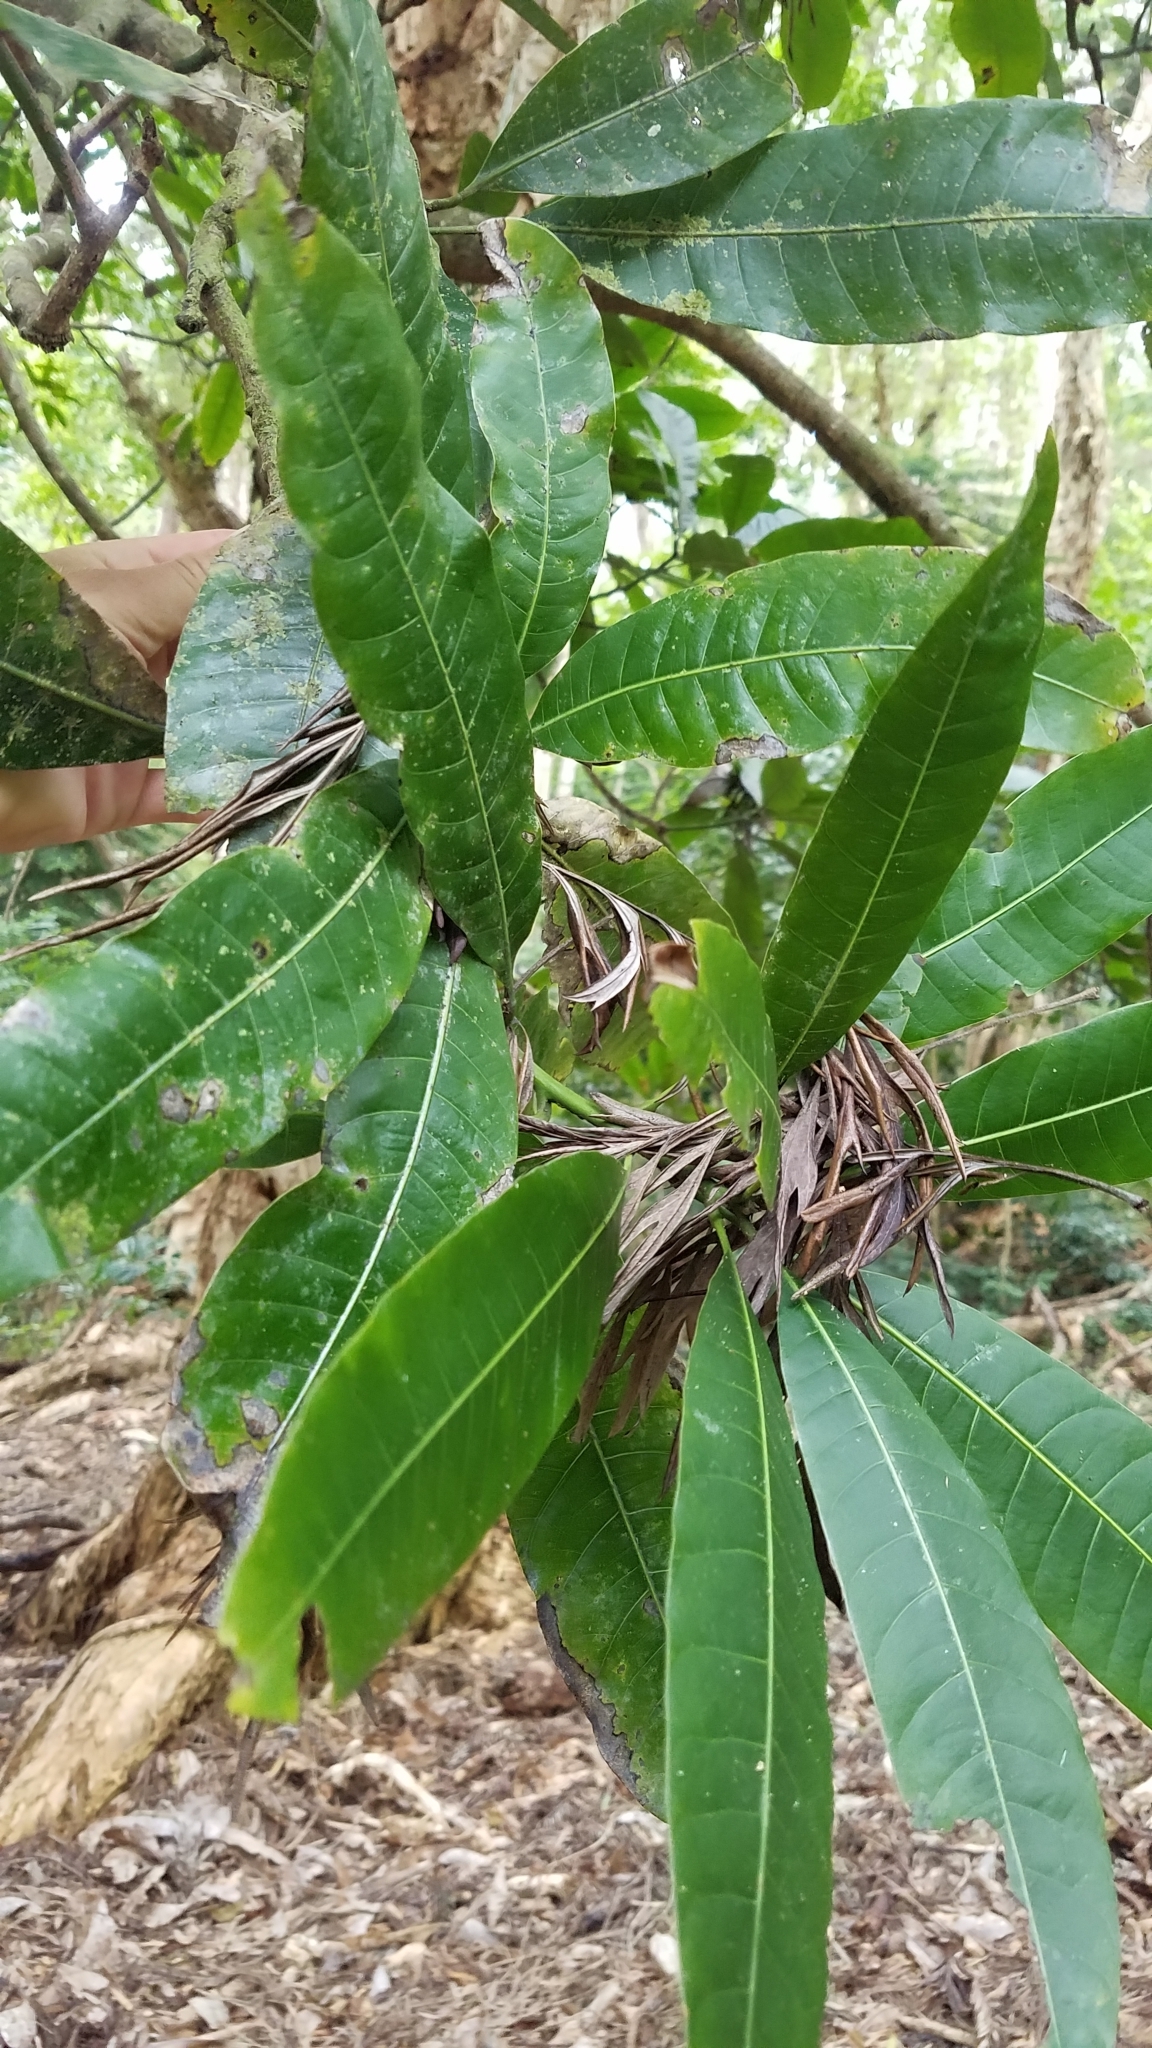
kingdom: Plantae
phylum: Tracheophyta
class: Magnoliopsida
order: Sapindales
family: Anacardiaceae
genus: Mangifera
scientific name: Mangifera indica
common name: Mango
